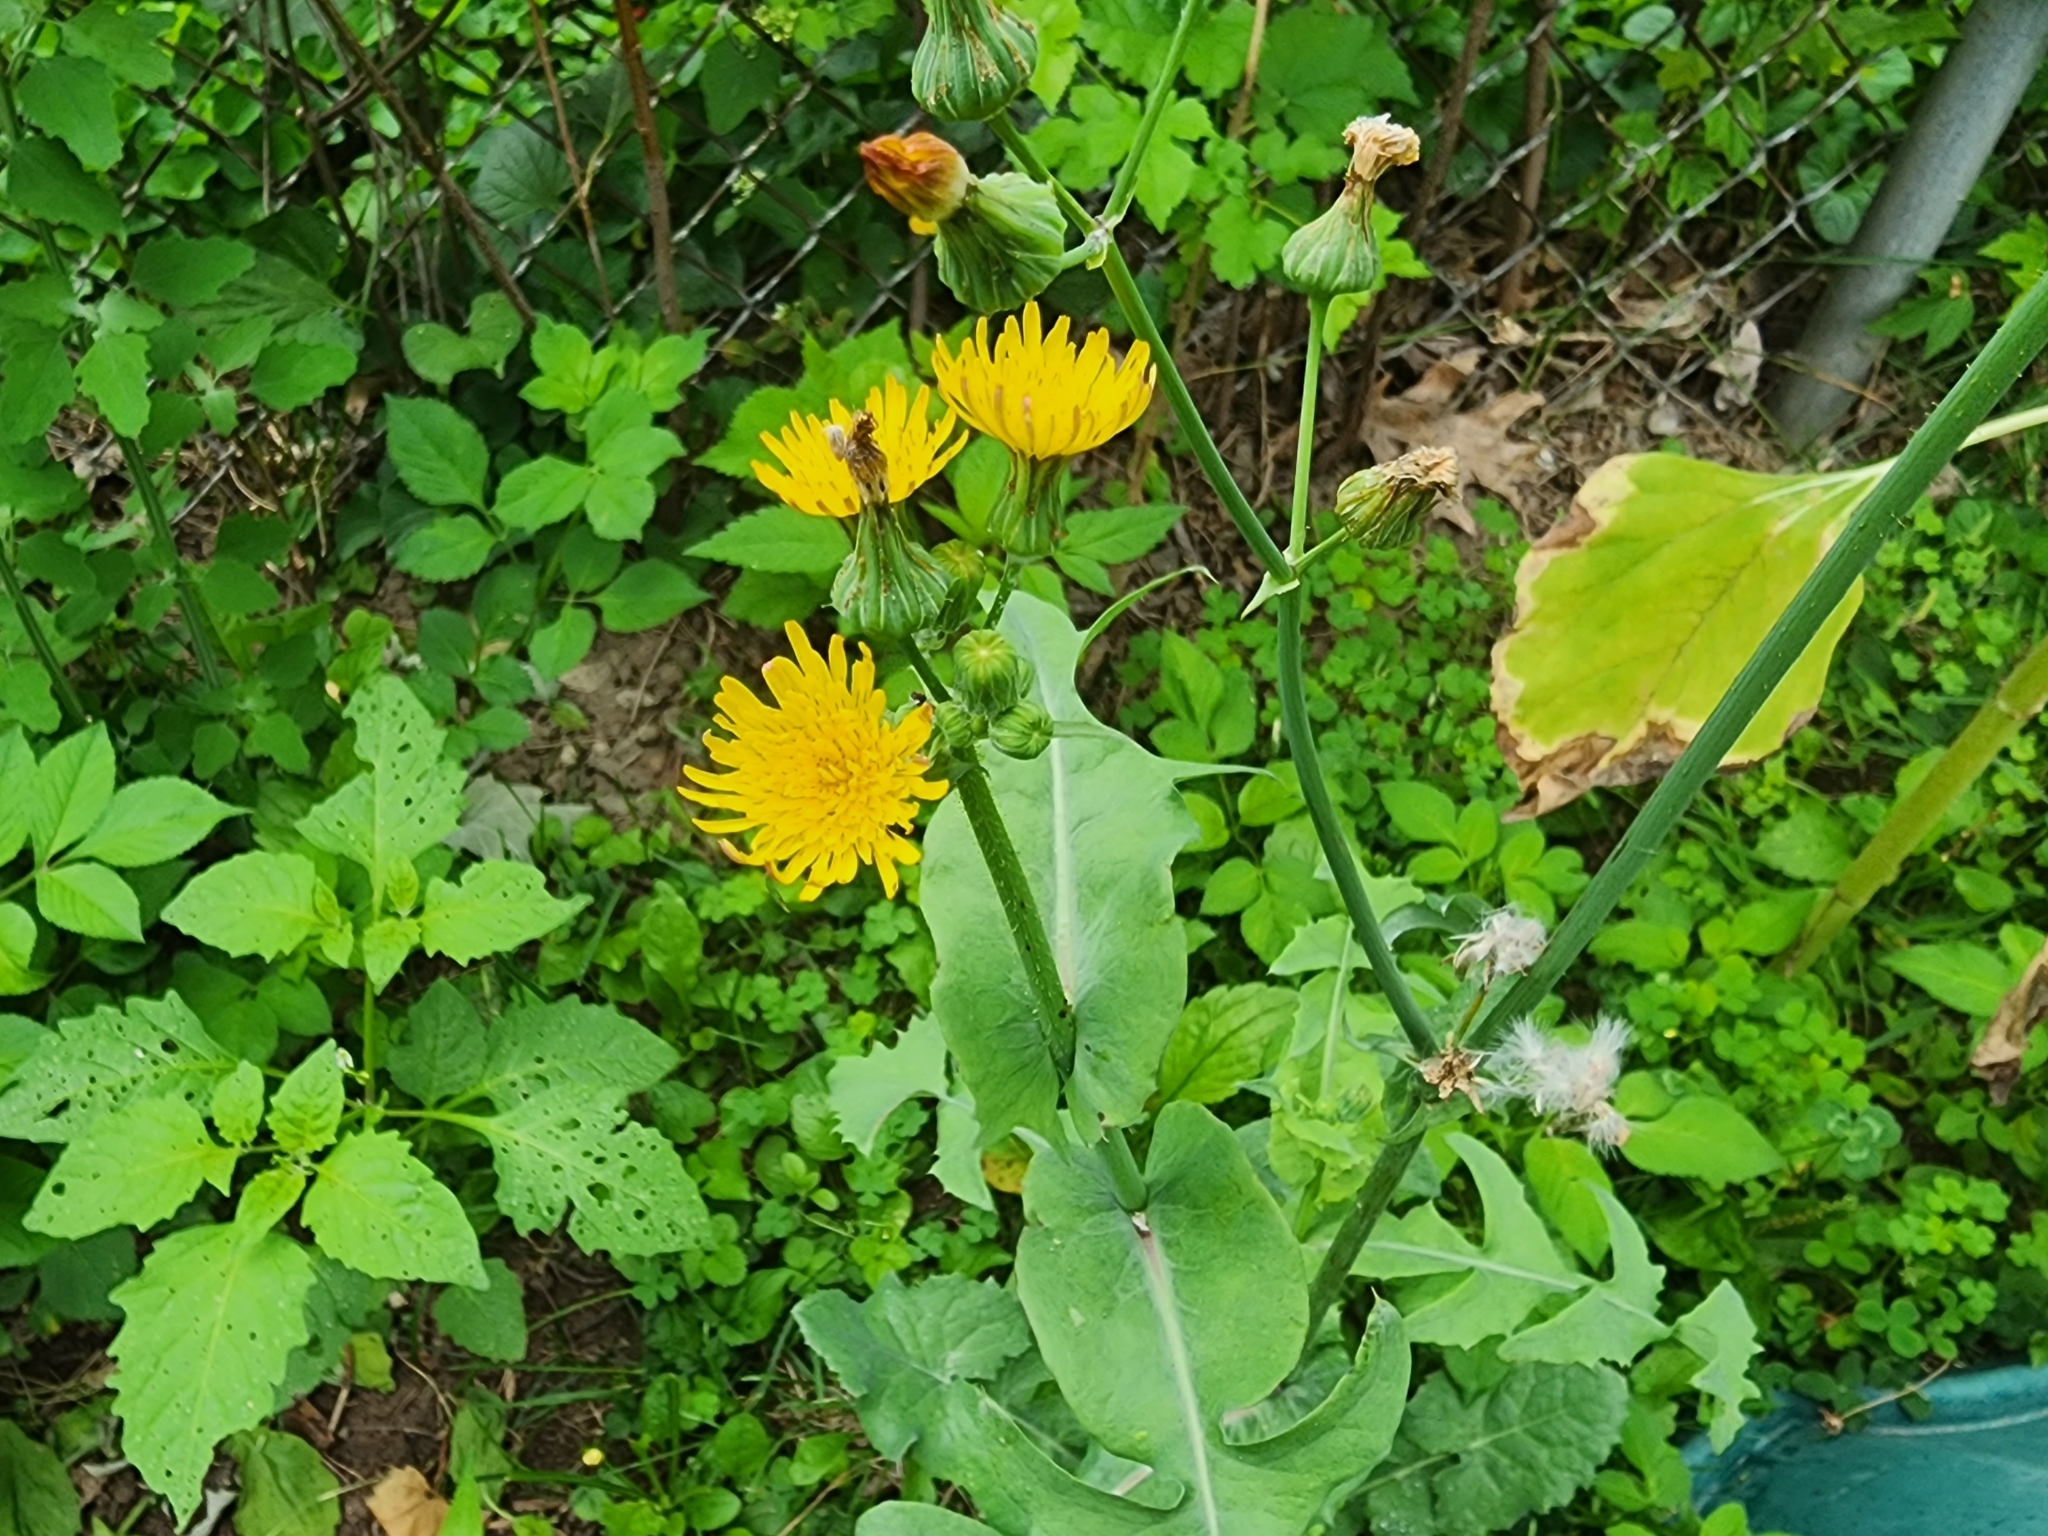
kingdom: Plantae
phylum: Tracheophyta
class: Magnoliopsida
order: Asterales
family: Asteraceae
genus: Sonchus
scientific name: Sonchus oleraceus
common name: Common sowthistle
